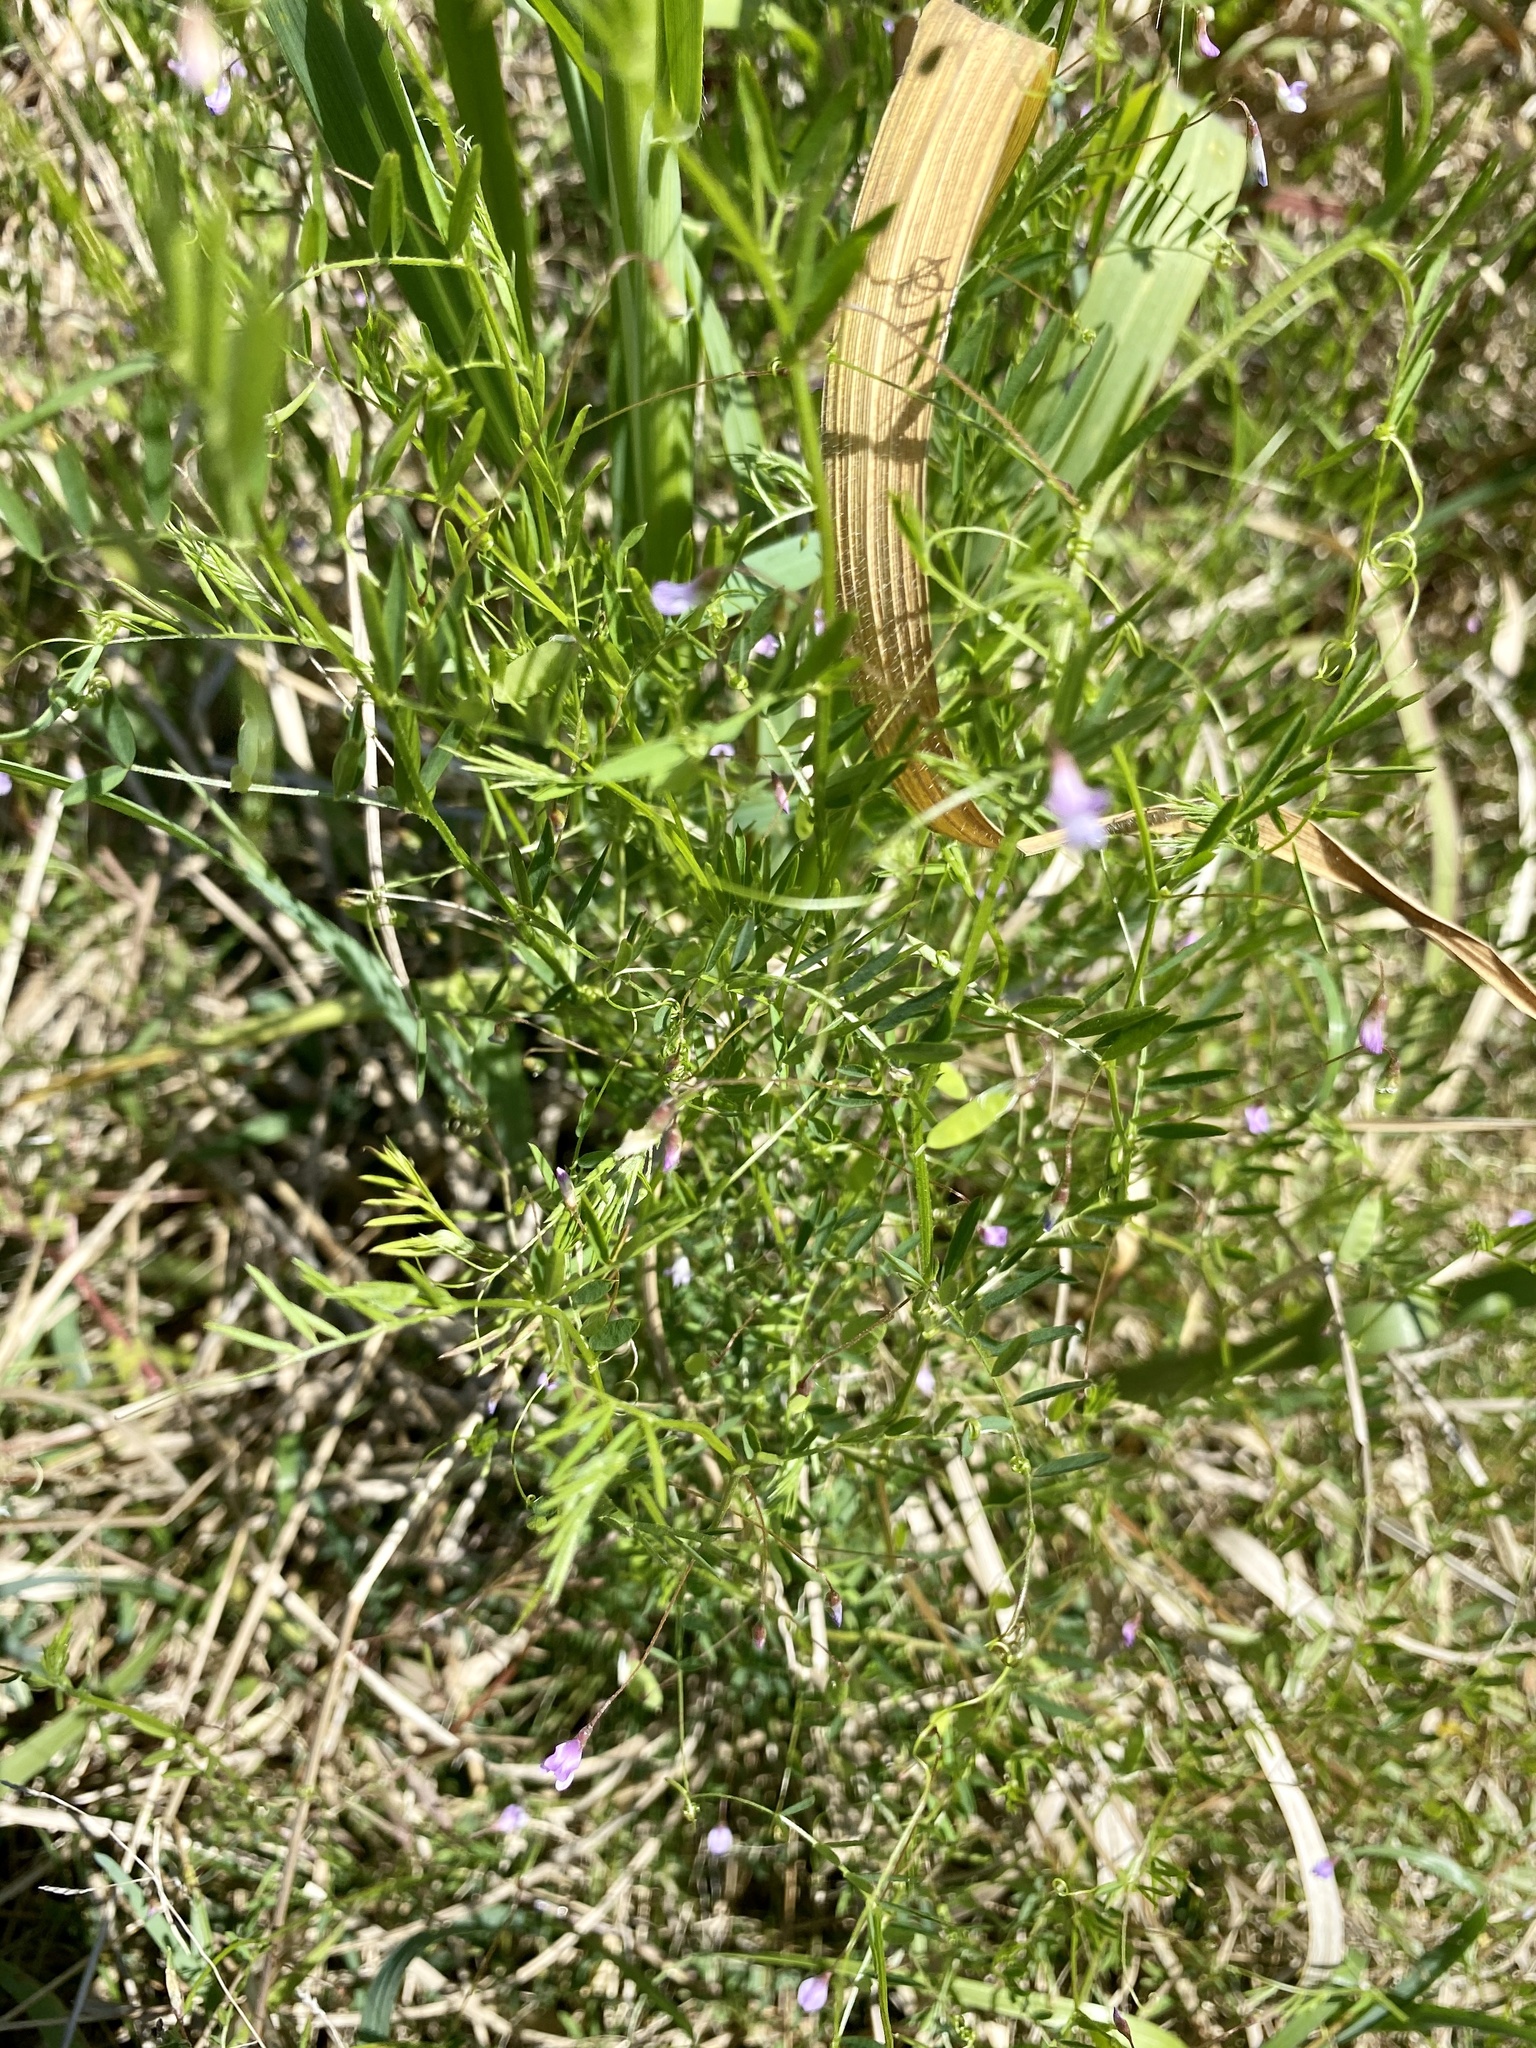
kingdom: Plantae
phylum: Tracheophyta
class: Magnoliopsida
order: Fabales
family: Fabaceae
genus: Vicia
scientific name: Vicia tetrasperma
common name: Smooth tare
